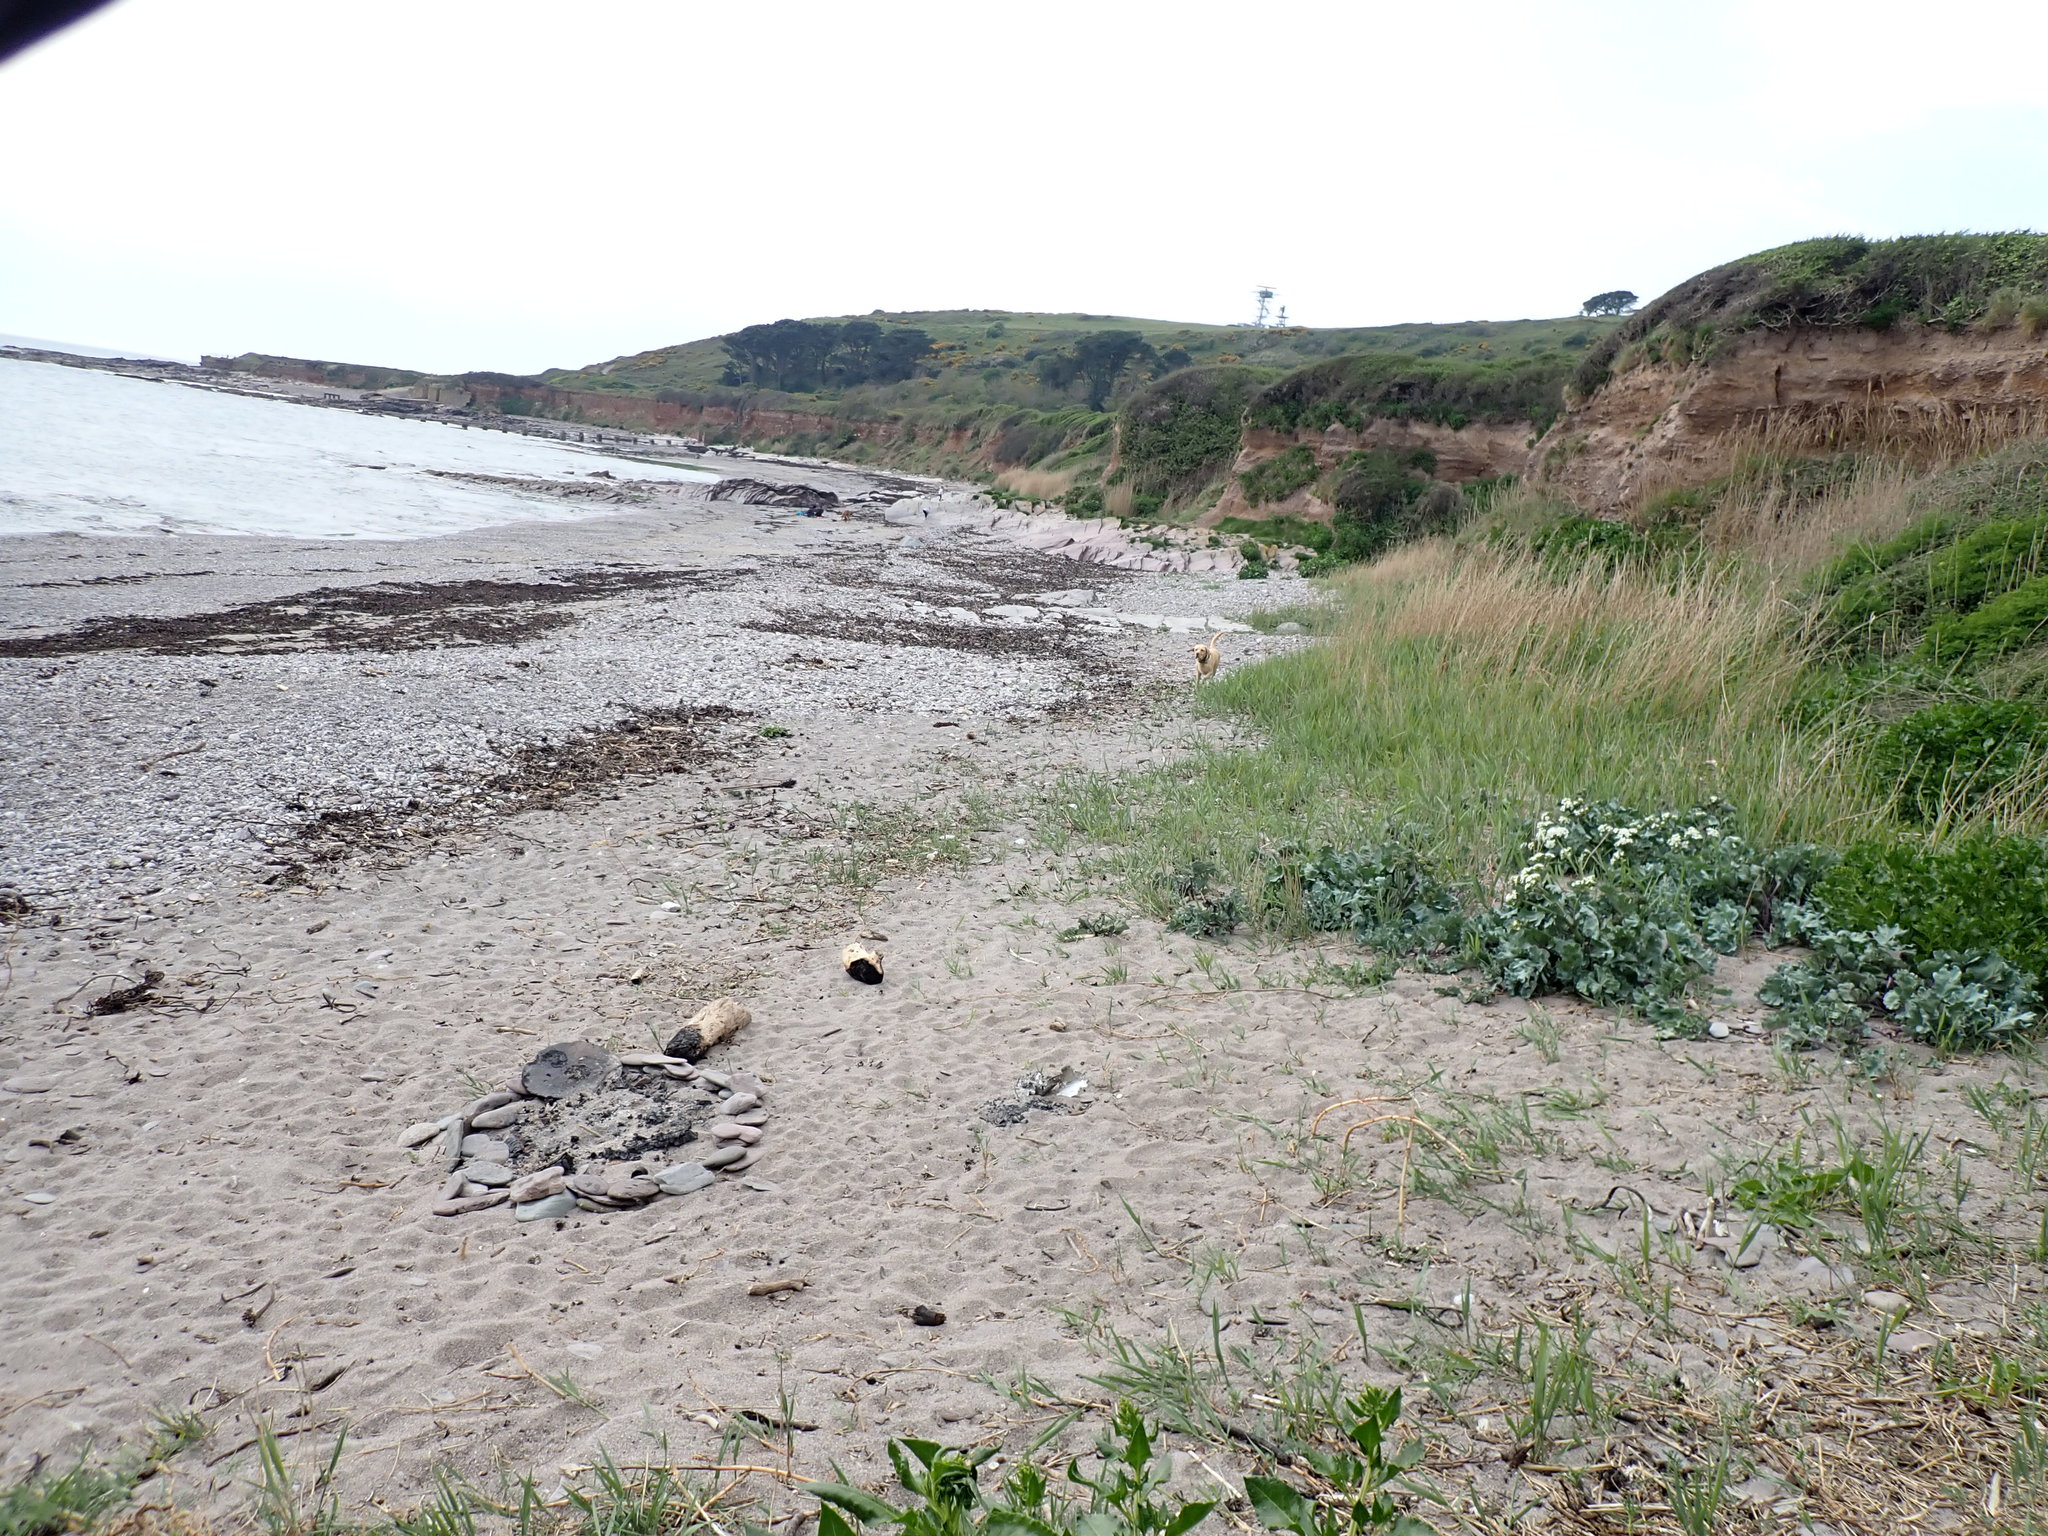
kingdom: Plantae
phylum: Tracheophyta
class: Magnoliopsida
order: Brassicales
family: Brassicaceae
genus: Crambe
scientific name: Crambe maritima
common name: Sea-kale
